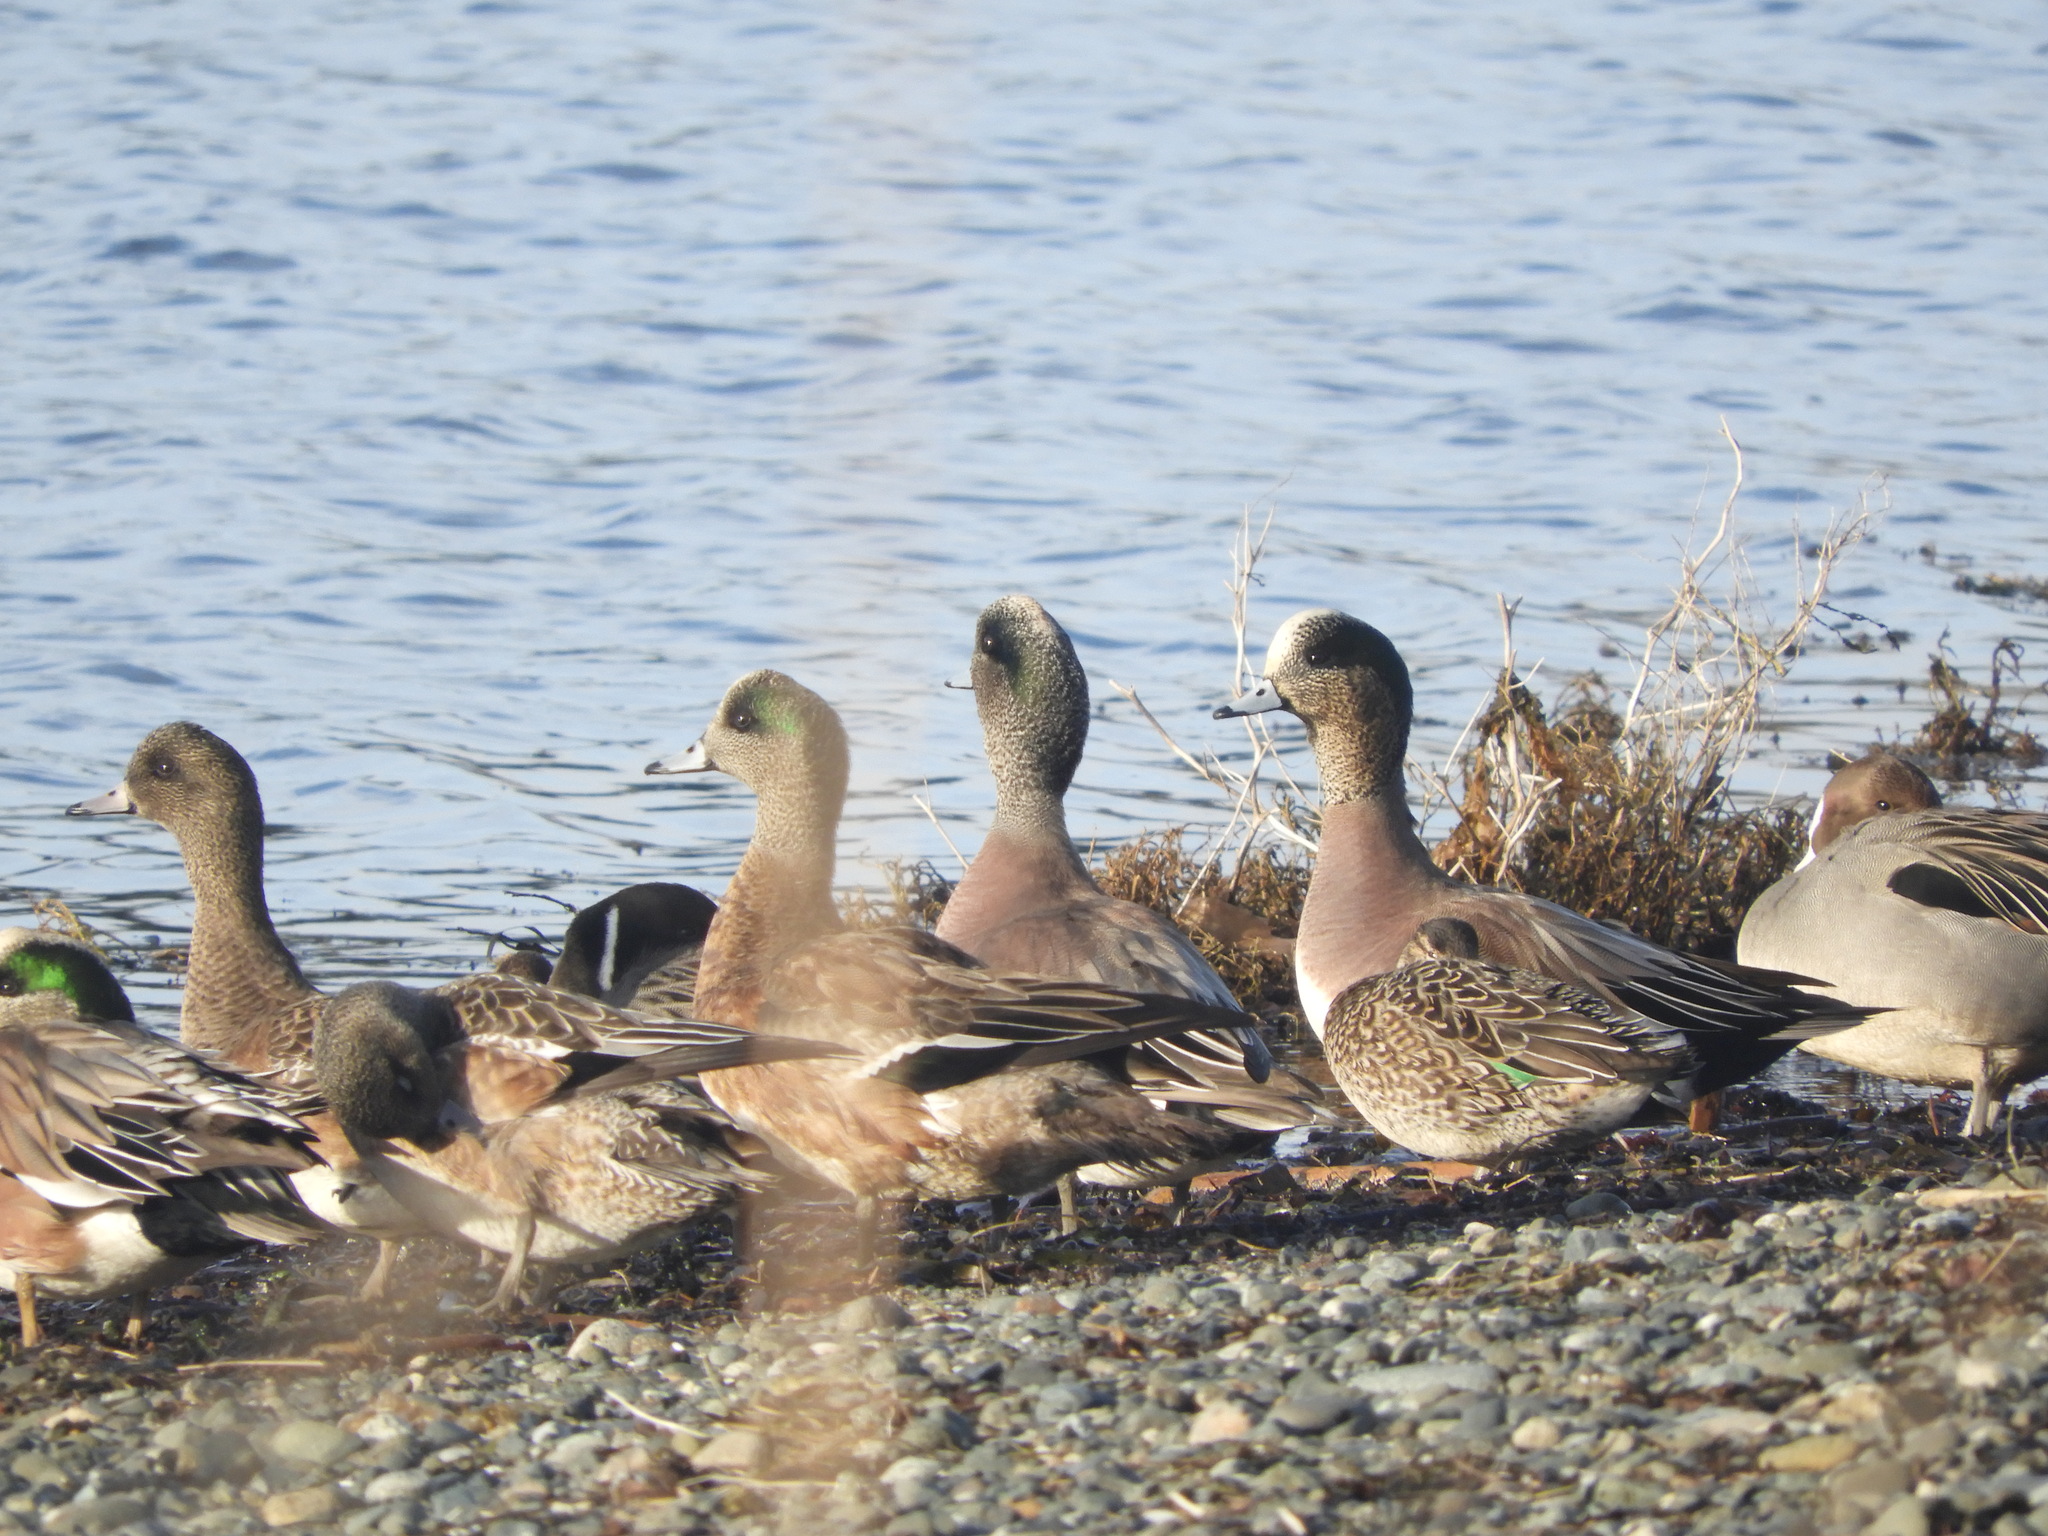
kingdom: Animalia
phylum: Chordata
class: Aves
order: Anseriformes
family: Anatidae
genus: Mareca
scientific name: Mareca americana
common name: American wigeon
